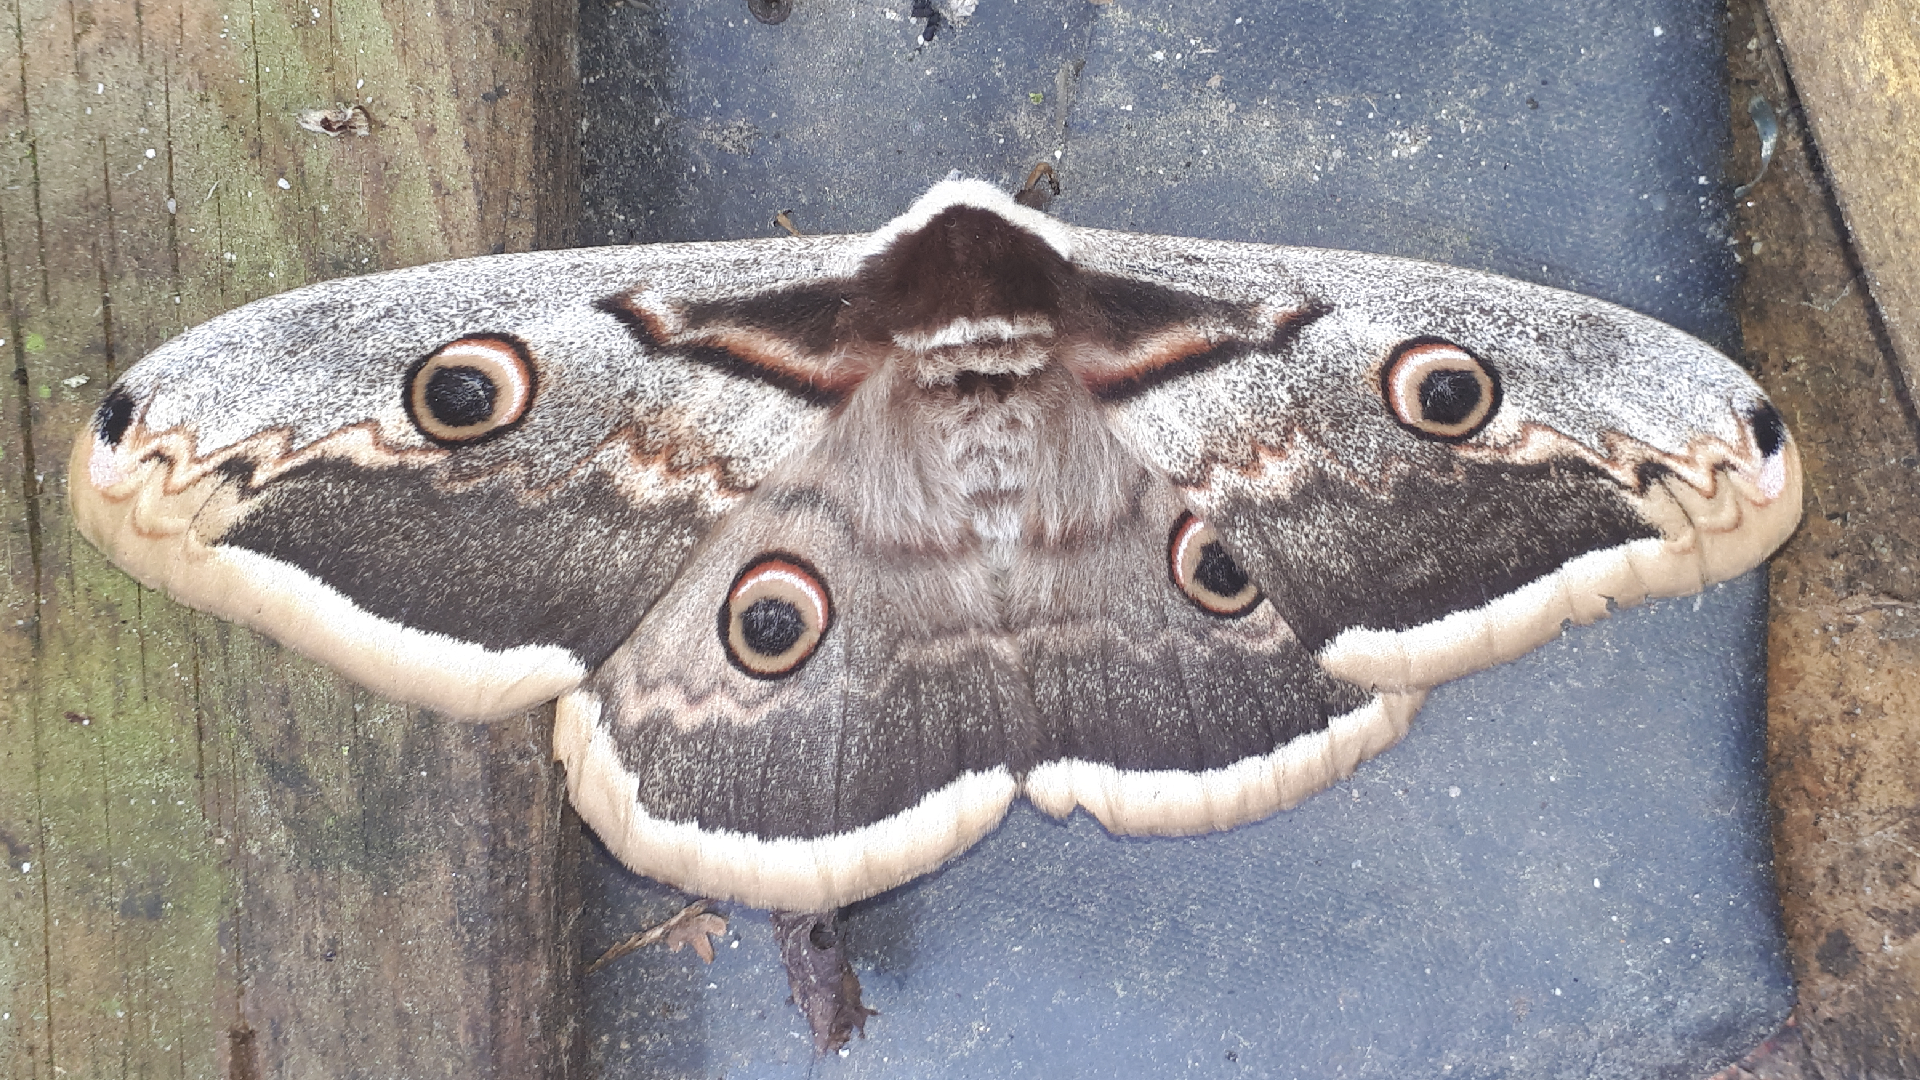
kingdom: Animalia
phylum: Arthropoda
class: Insecta
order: Lepidoptera
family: Saturniidae
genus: Saturnia
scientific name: Saturnia pyri
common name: Great peacock moth
